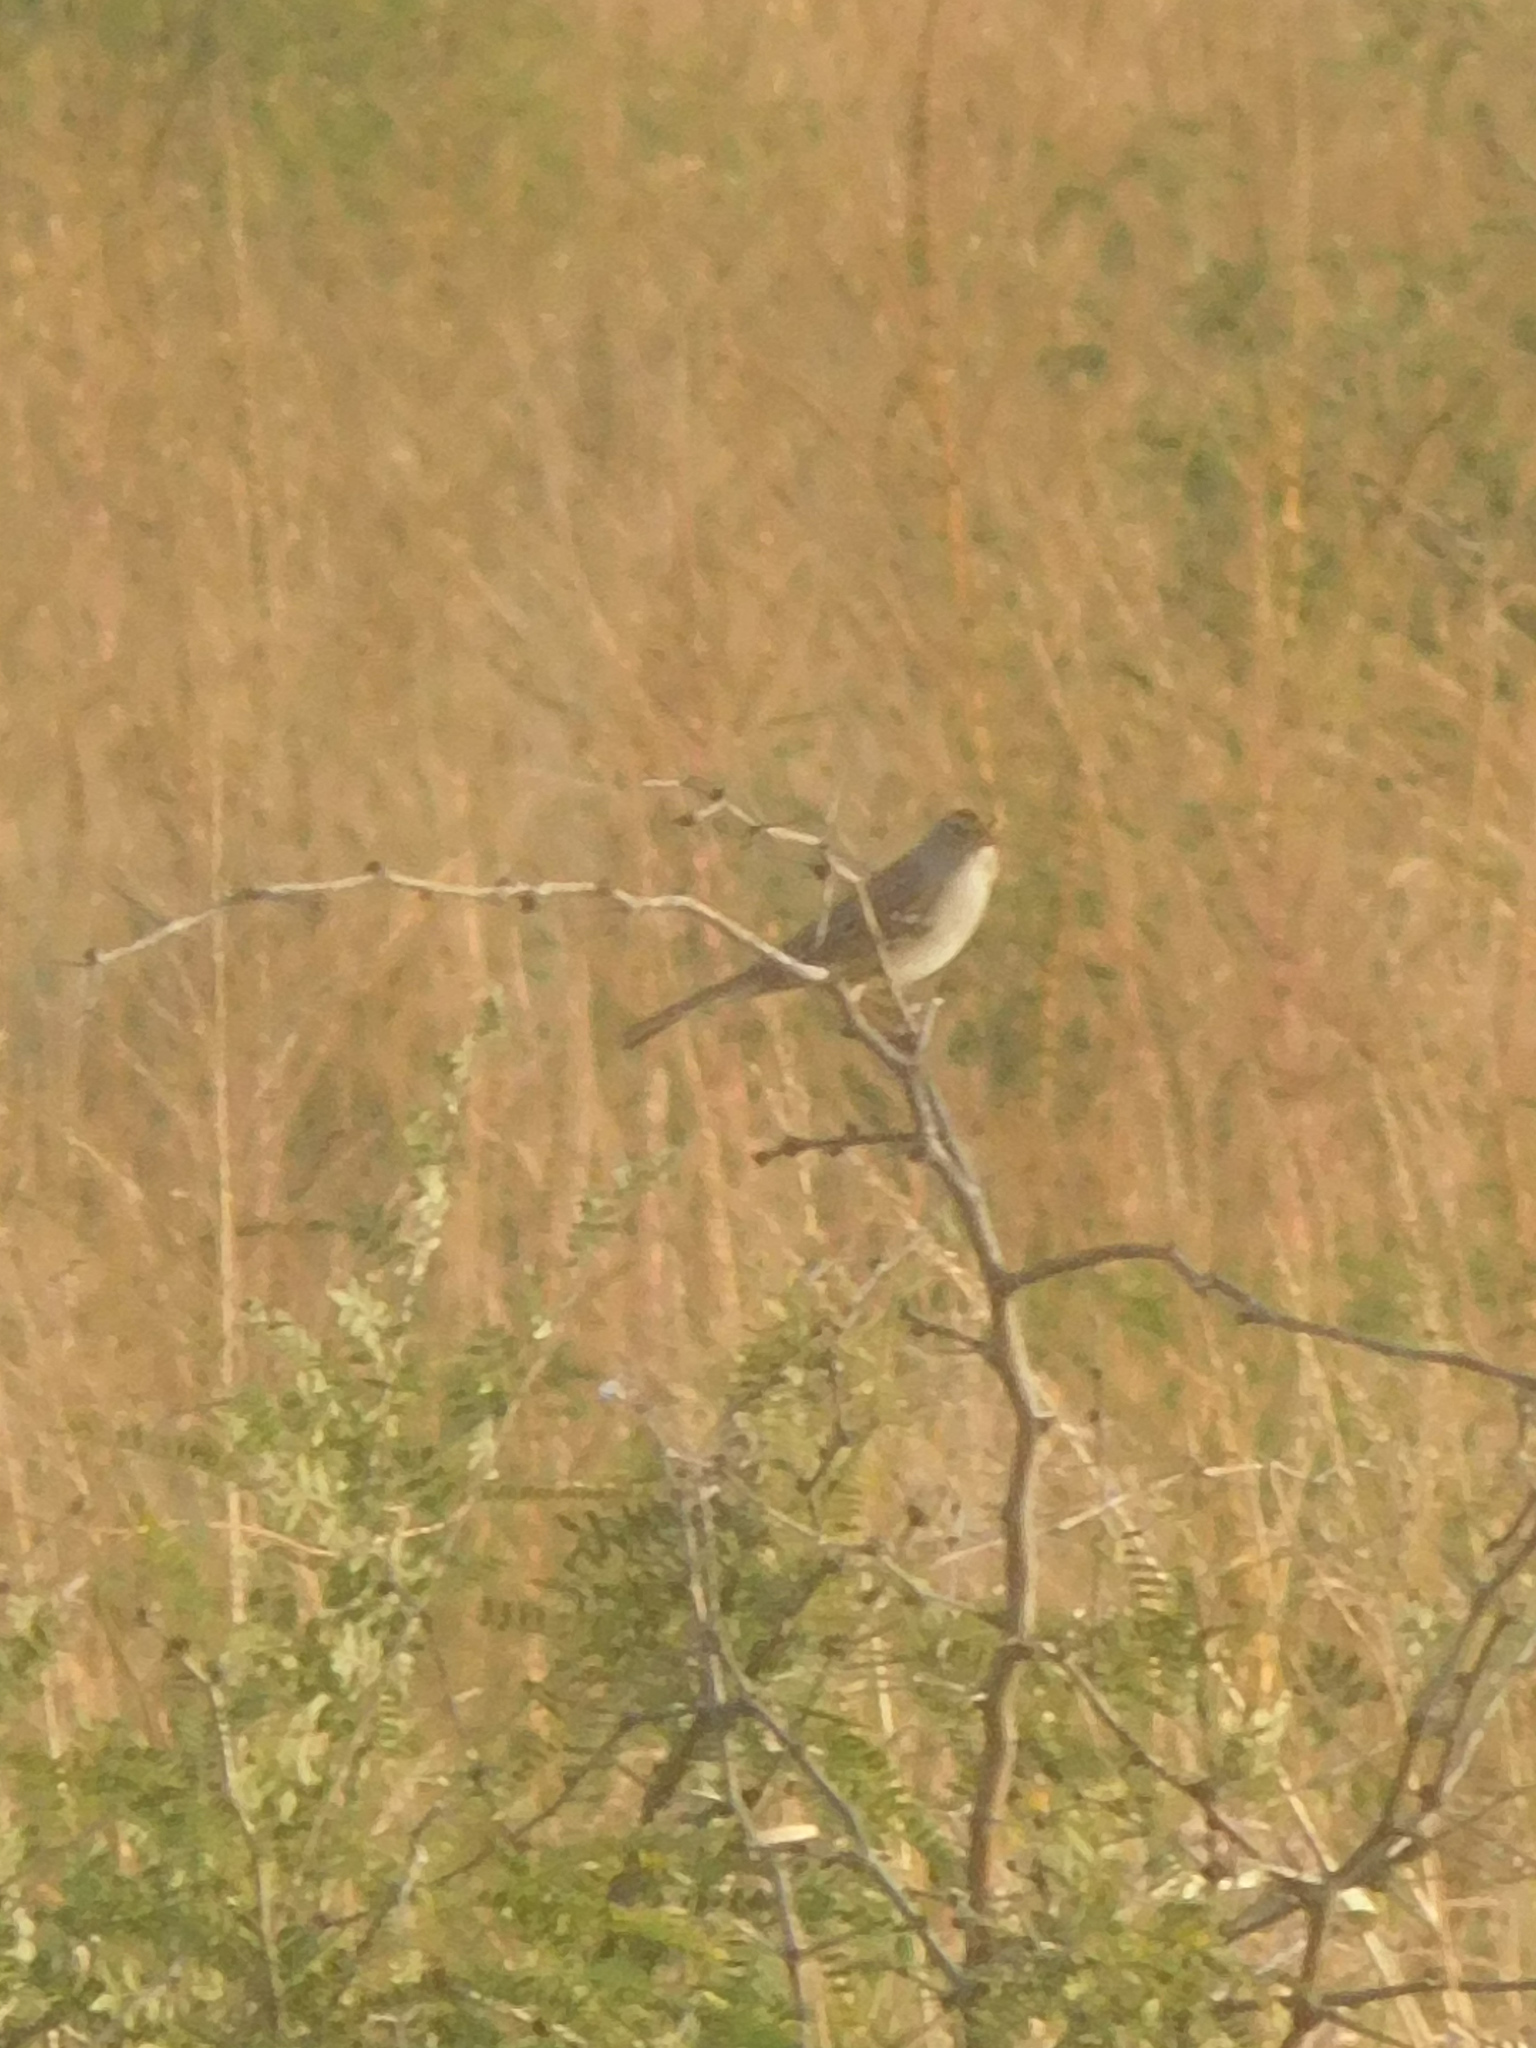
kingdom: Animalia
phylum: Chordata
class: Aves
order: Passeriformes
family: Passerellidae
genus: Zonotrichia
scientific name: Zonotrichia leucophrys
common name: White-crowned sparrow
